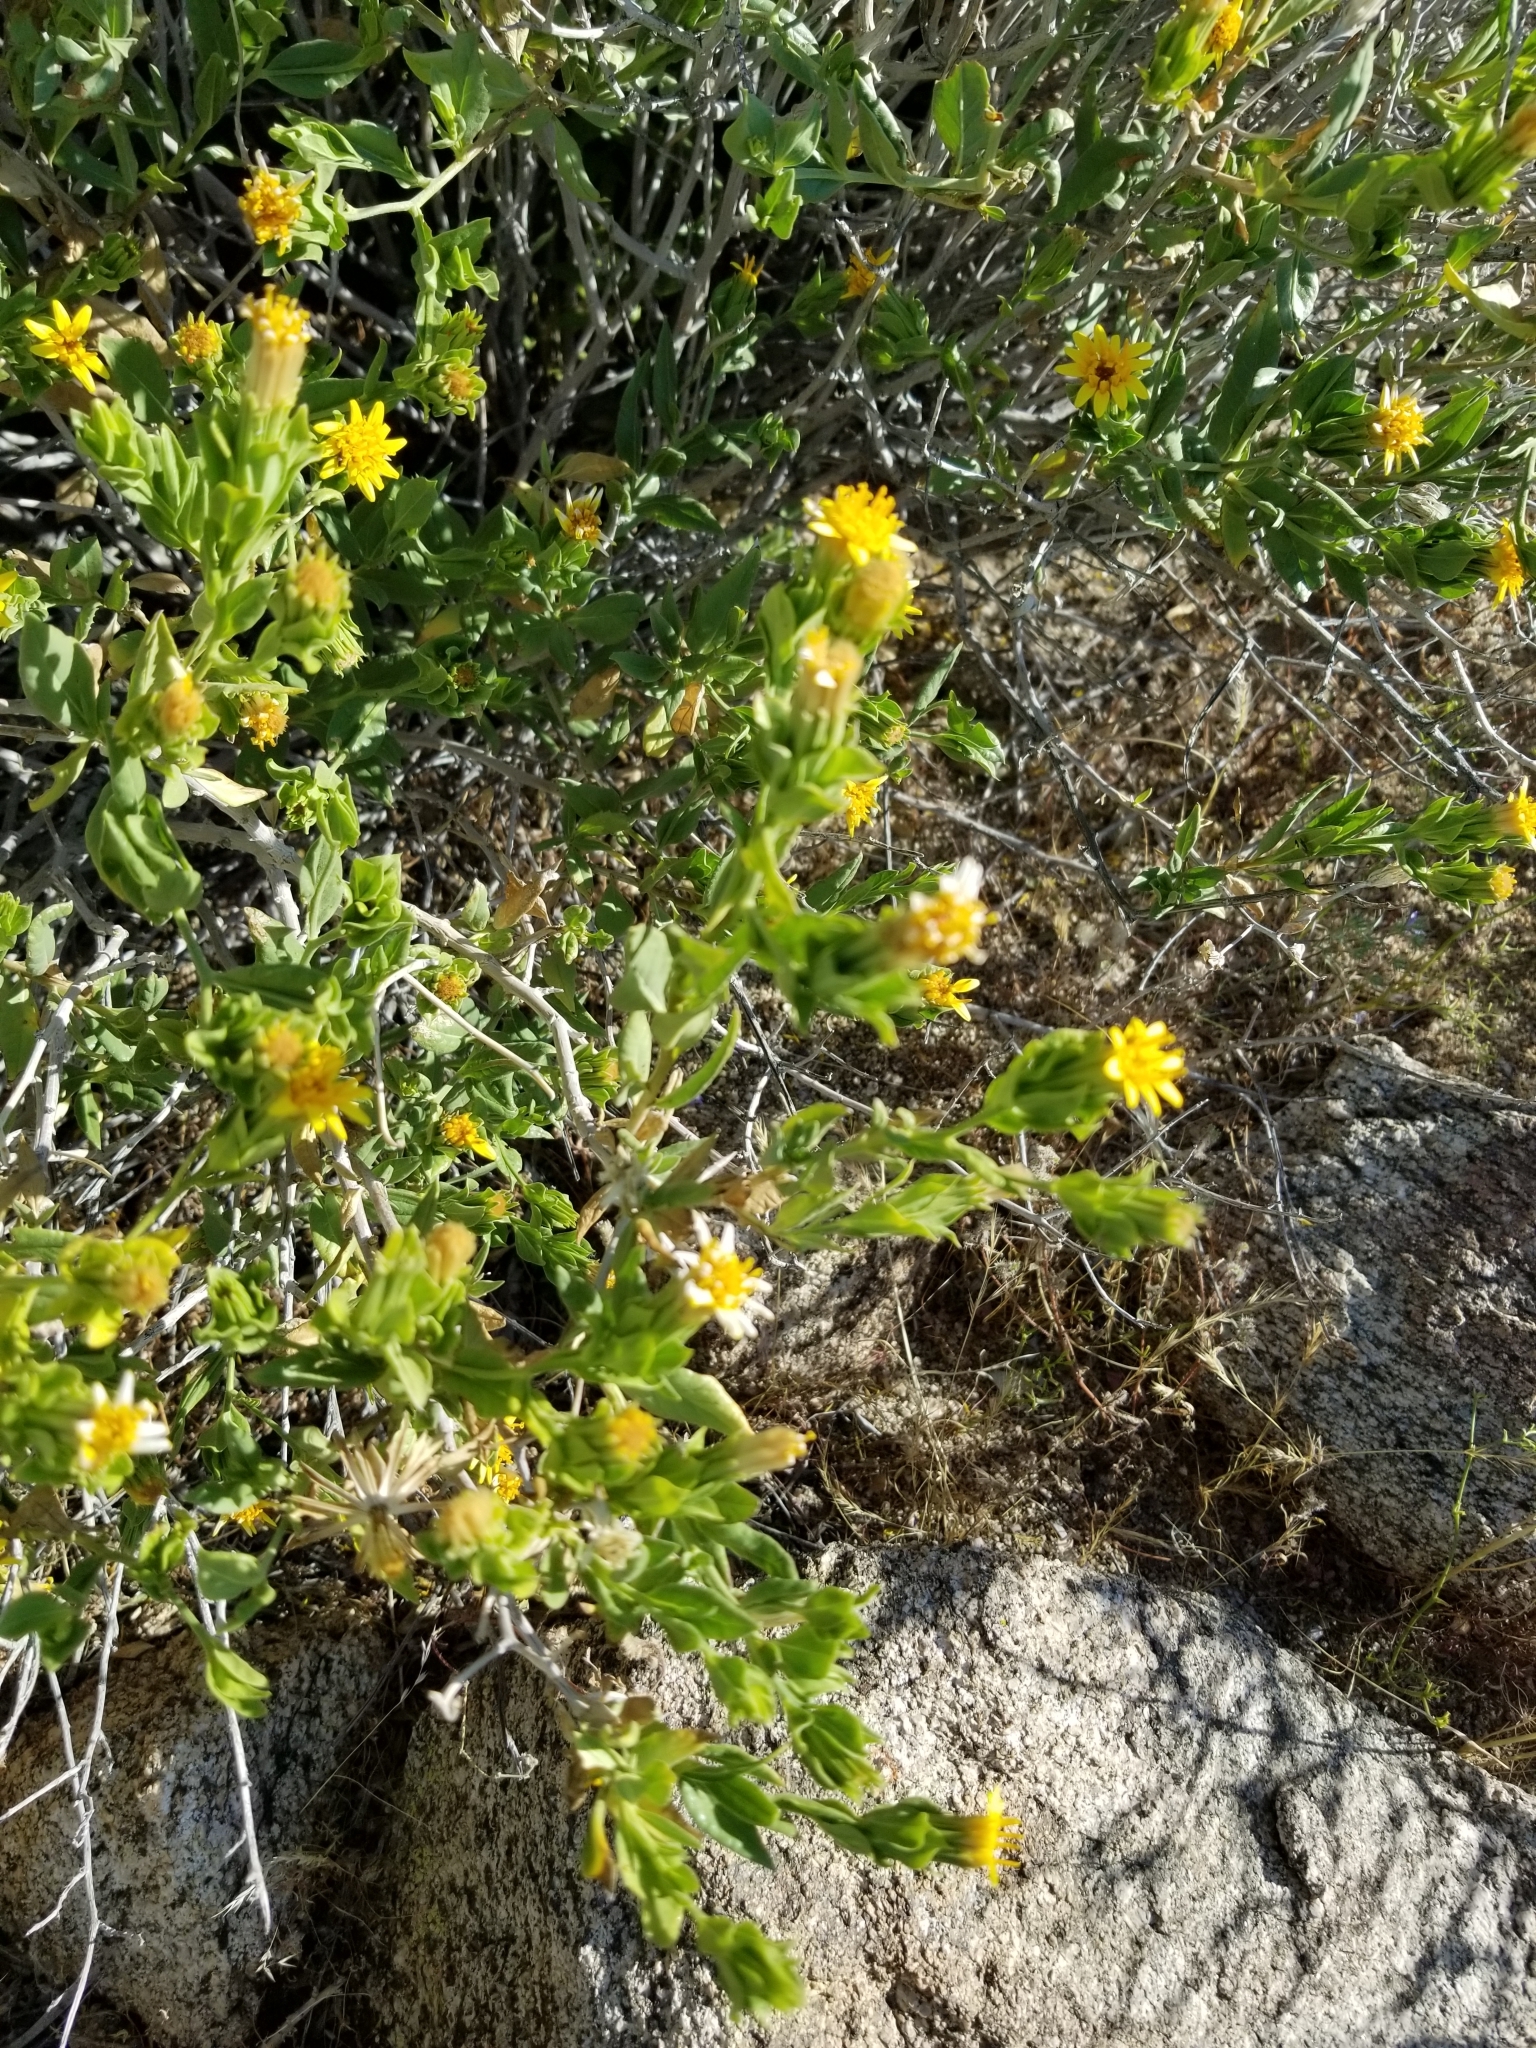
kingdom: Plantae
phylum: Tracheophyta
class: Magnoliopsida
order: Asterales
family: Asteraceae
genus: Trixis
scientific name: Trixis californica
